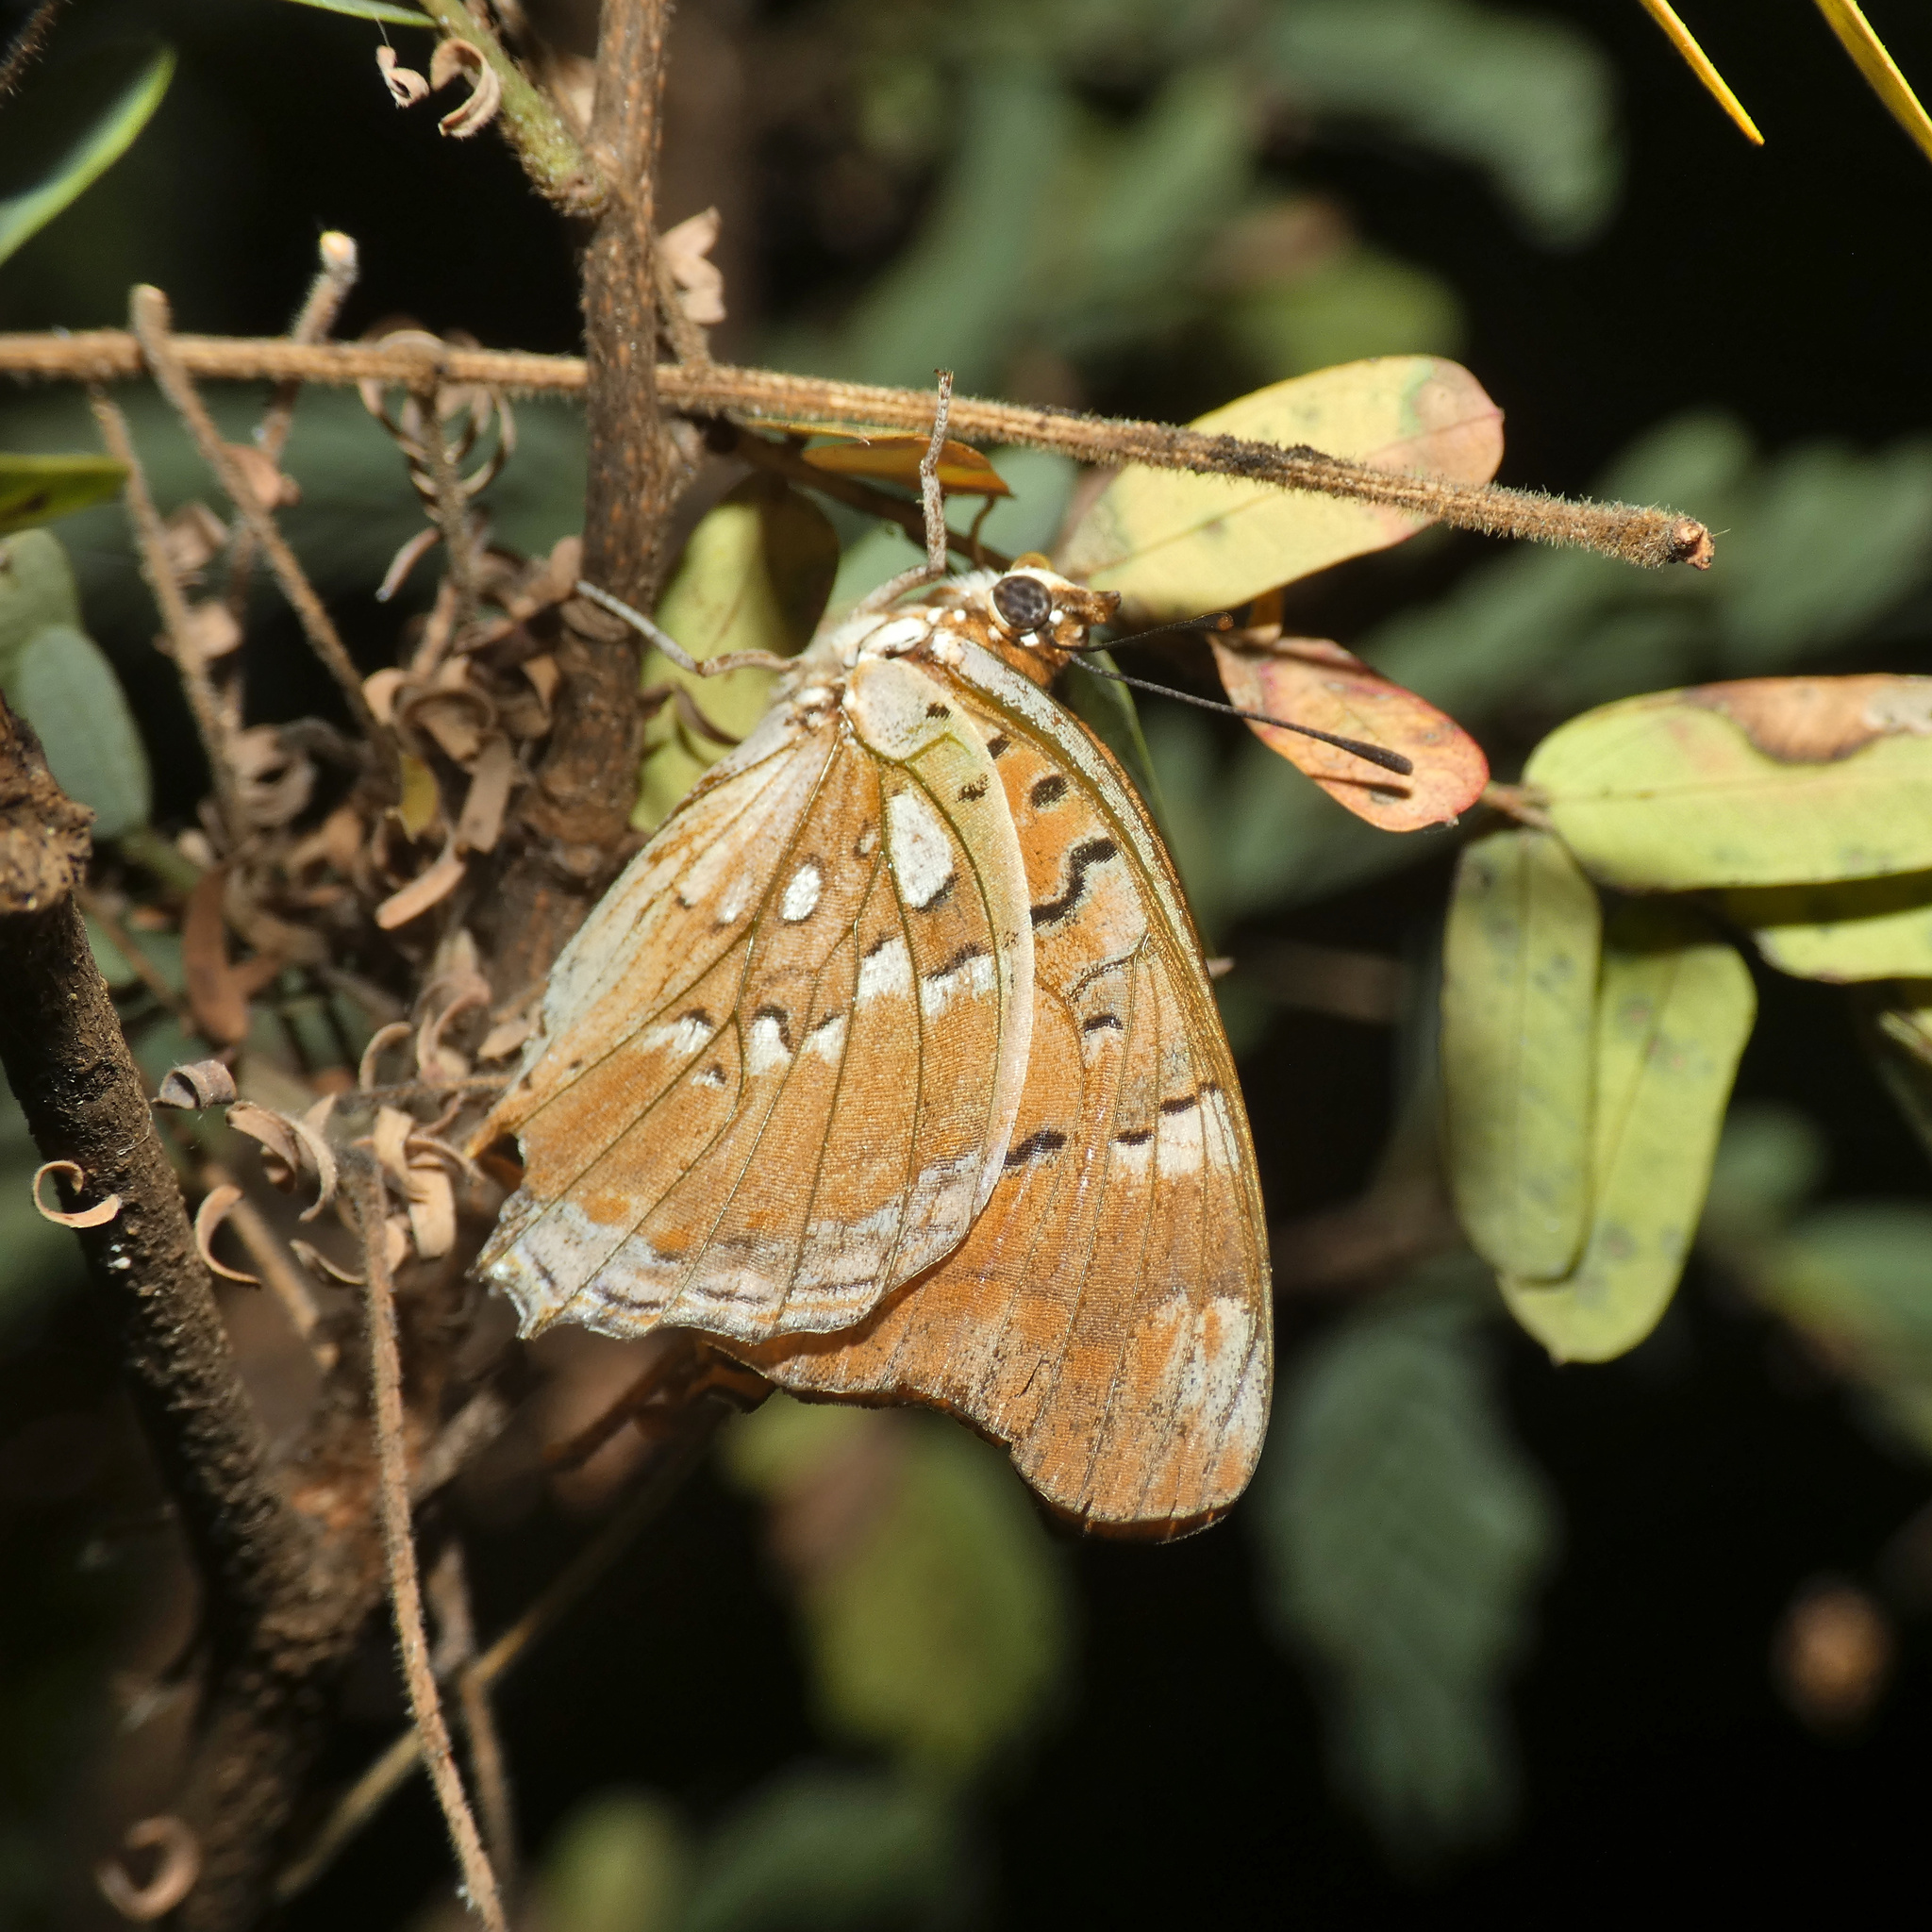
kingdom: Animalia
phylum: Arthropoda
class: Insecta
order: Lepidoptera
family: Nymphalidae
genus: Charaxes
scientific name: Charaxes jahlusa
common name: Pearl-spotted charaxes
